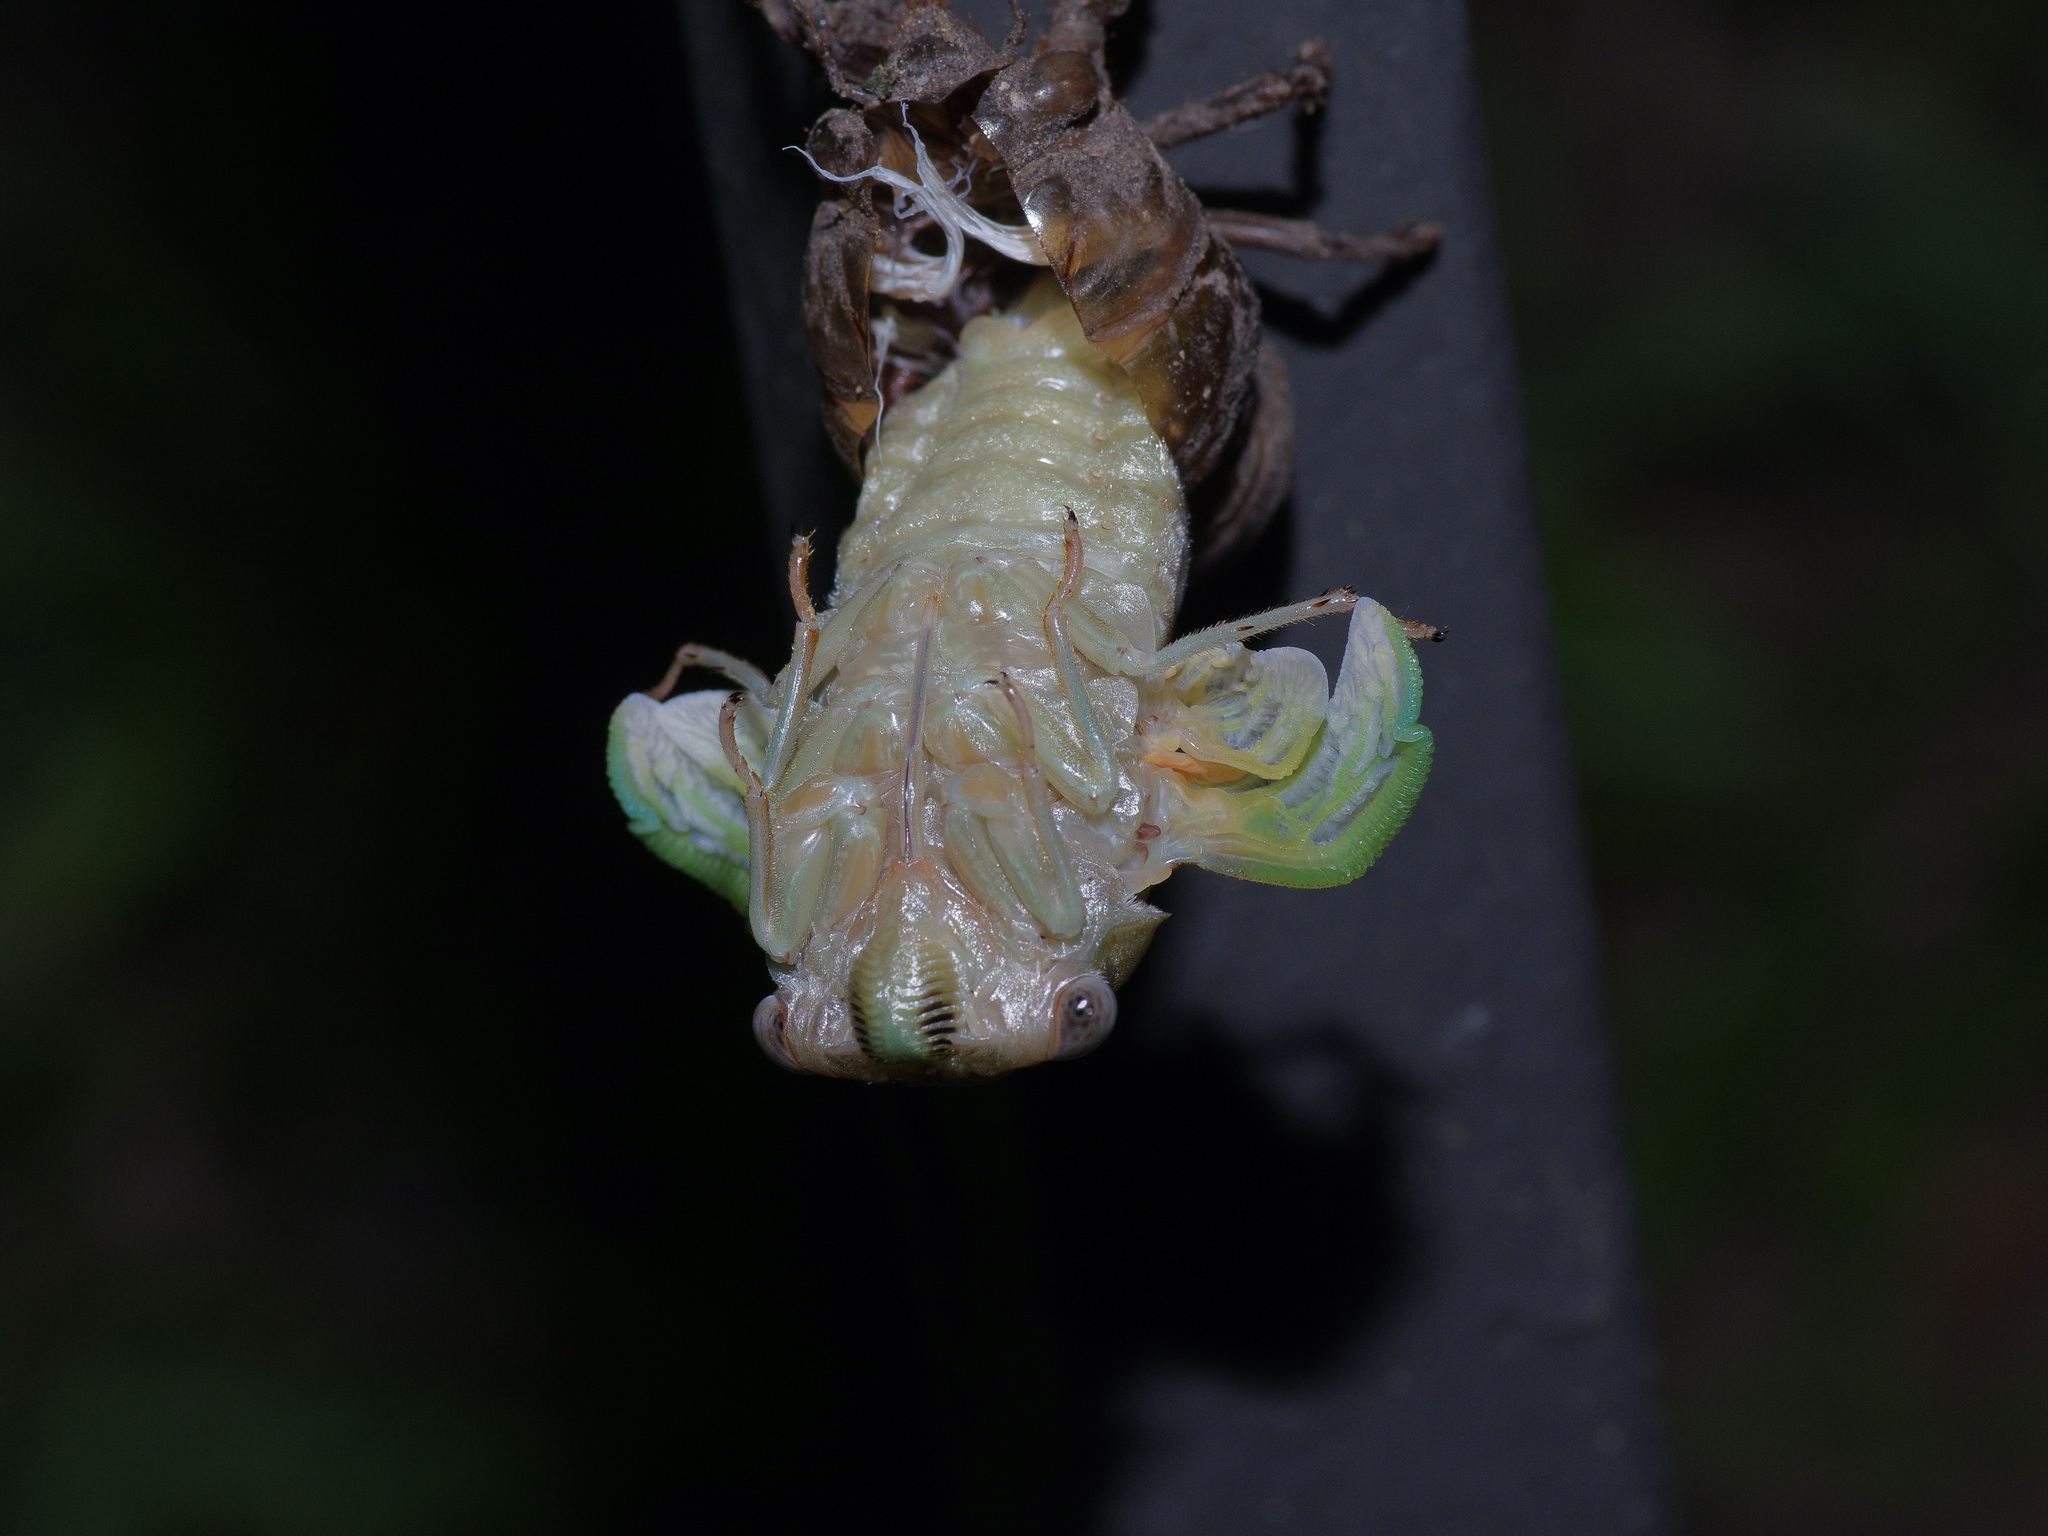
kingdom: Animalia
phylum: Arthropoda
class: Insecta
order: Hemiptera
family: Cicadidae
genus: Megatibicen
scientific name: Megatibicen resh
